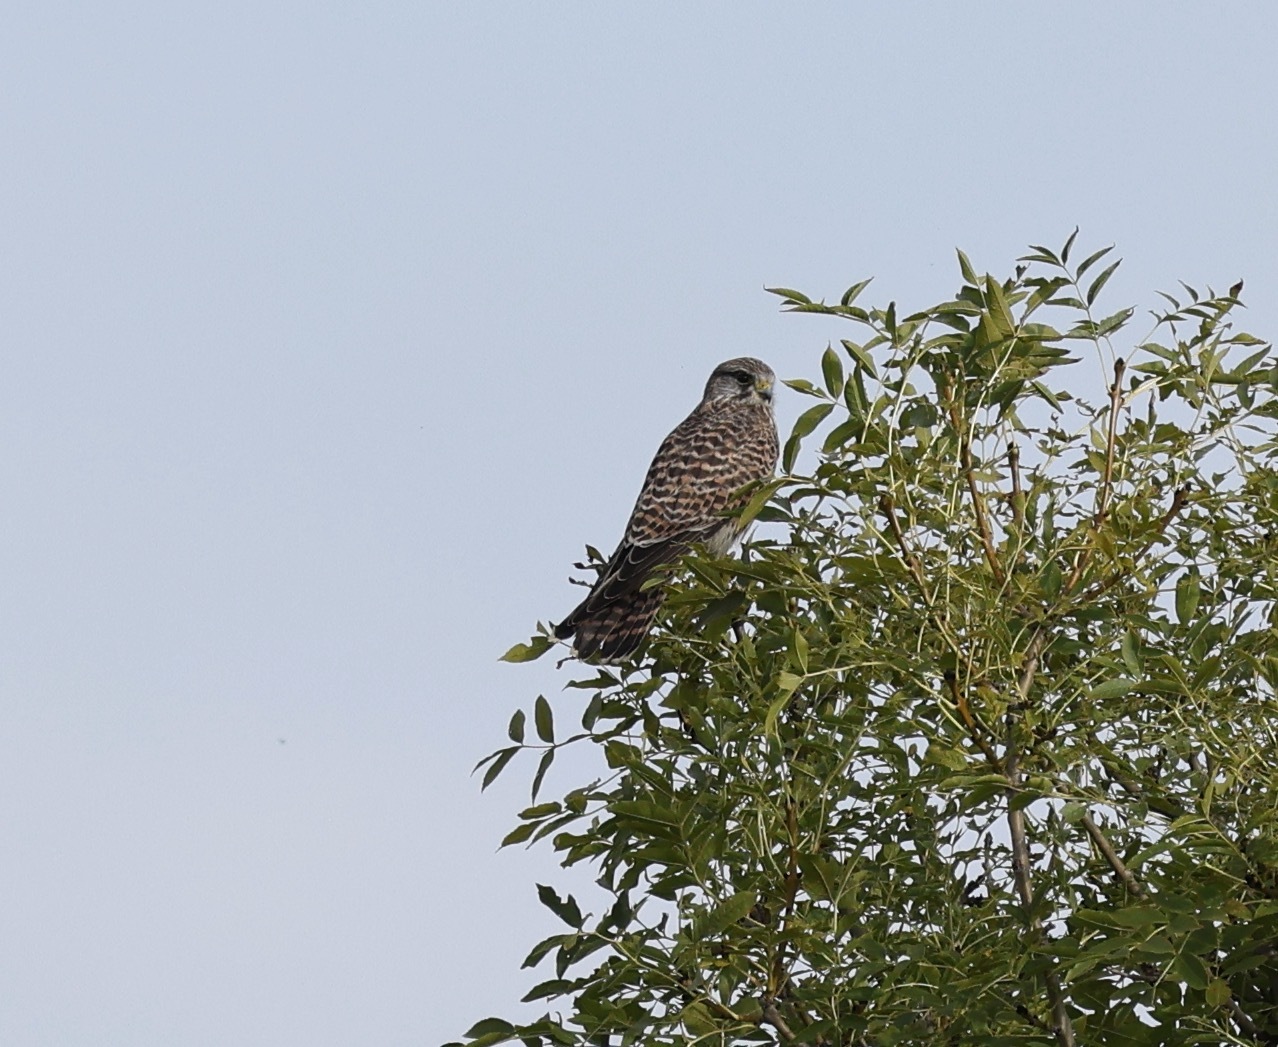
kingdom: Animalia
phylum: Chordata
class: Aves
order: Falconiformes
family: Falconidae
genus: Falco
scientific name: Falco tinnunculus
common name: Common kestrel
